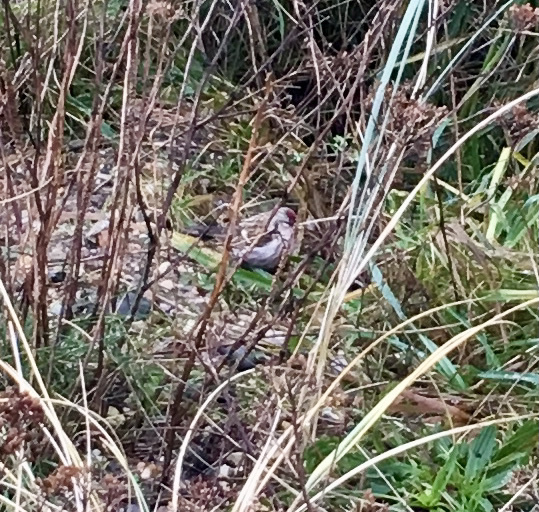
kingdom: Animalia
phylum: Chordata
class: Aves
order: Passeriformes
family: Fringillidae
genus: Acanthis
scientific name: Acanthis flammea
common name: Common redpoll
